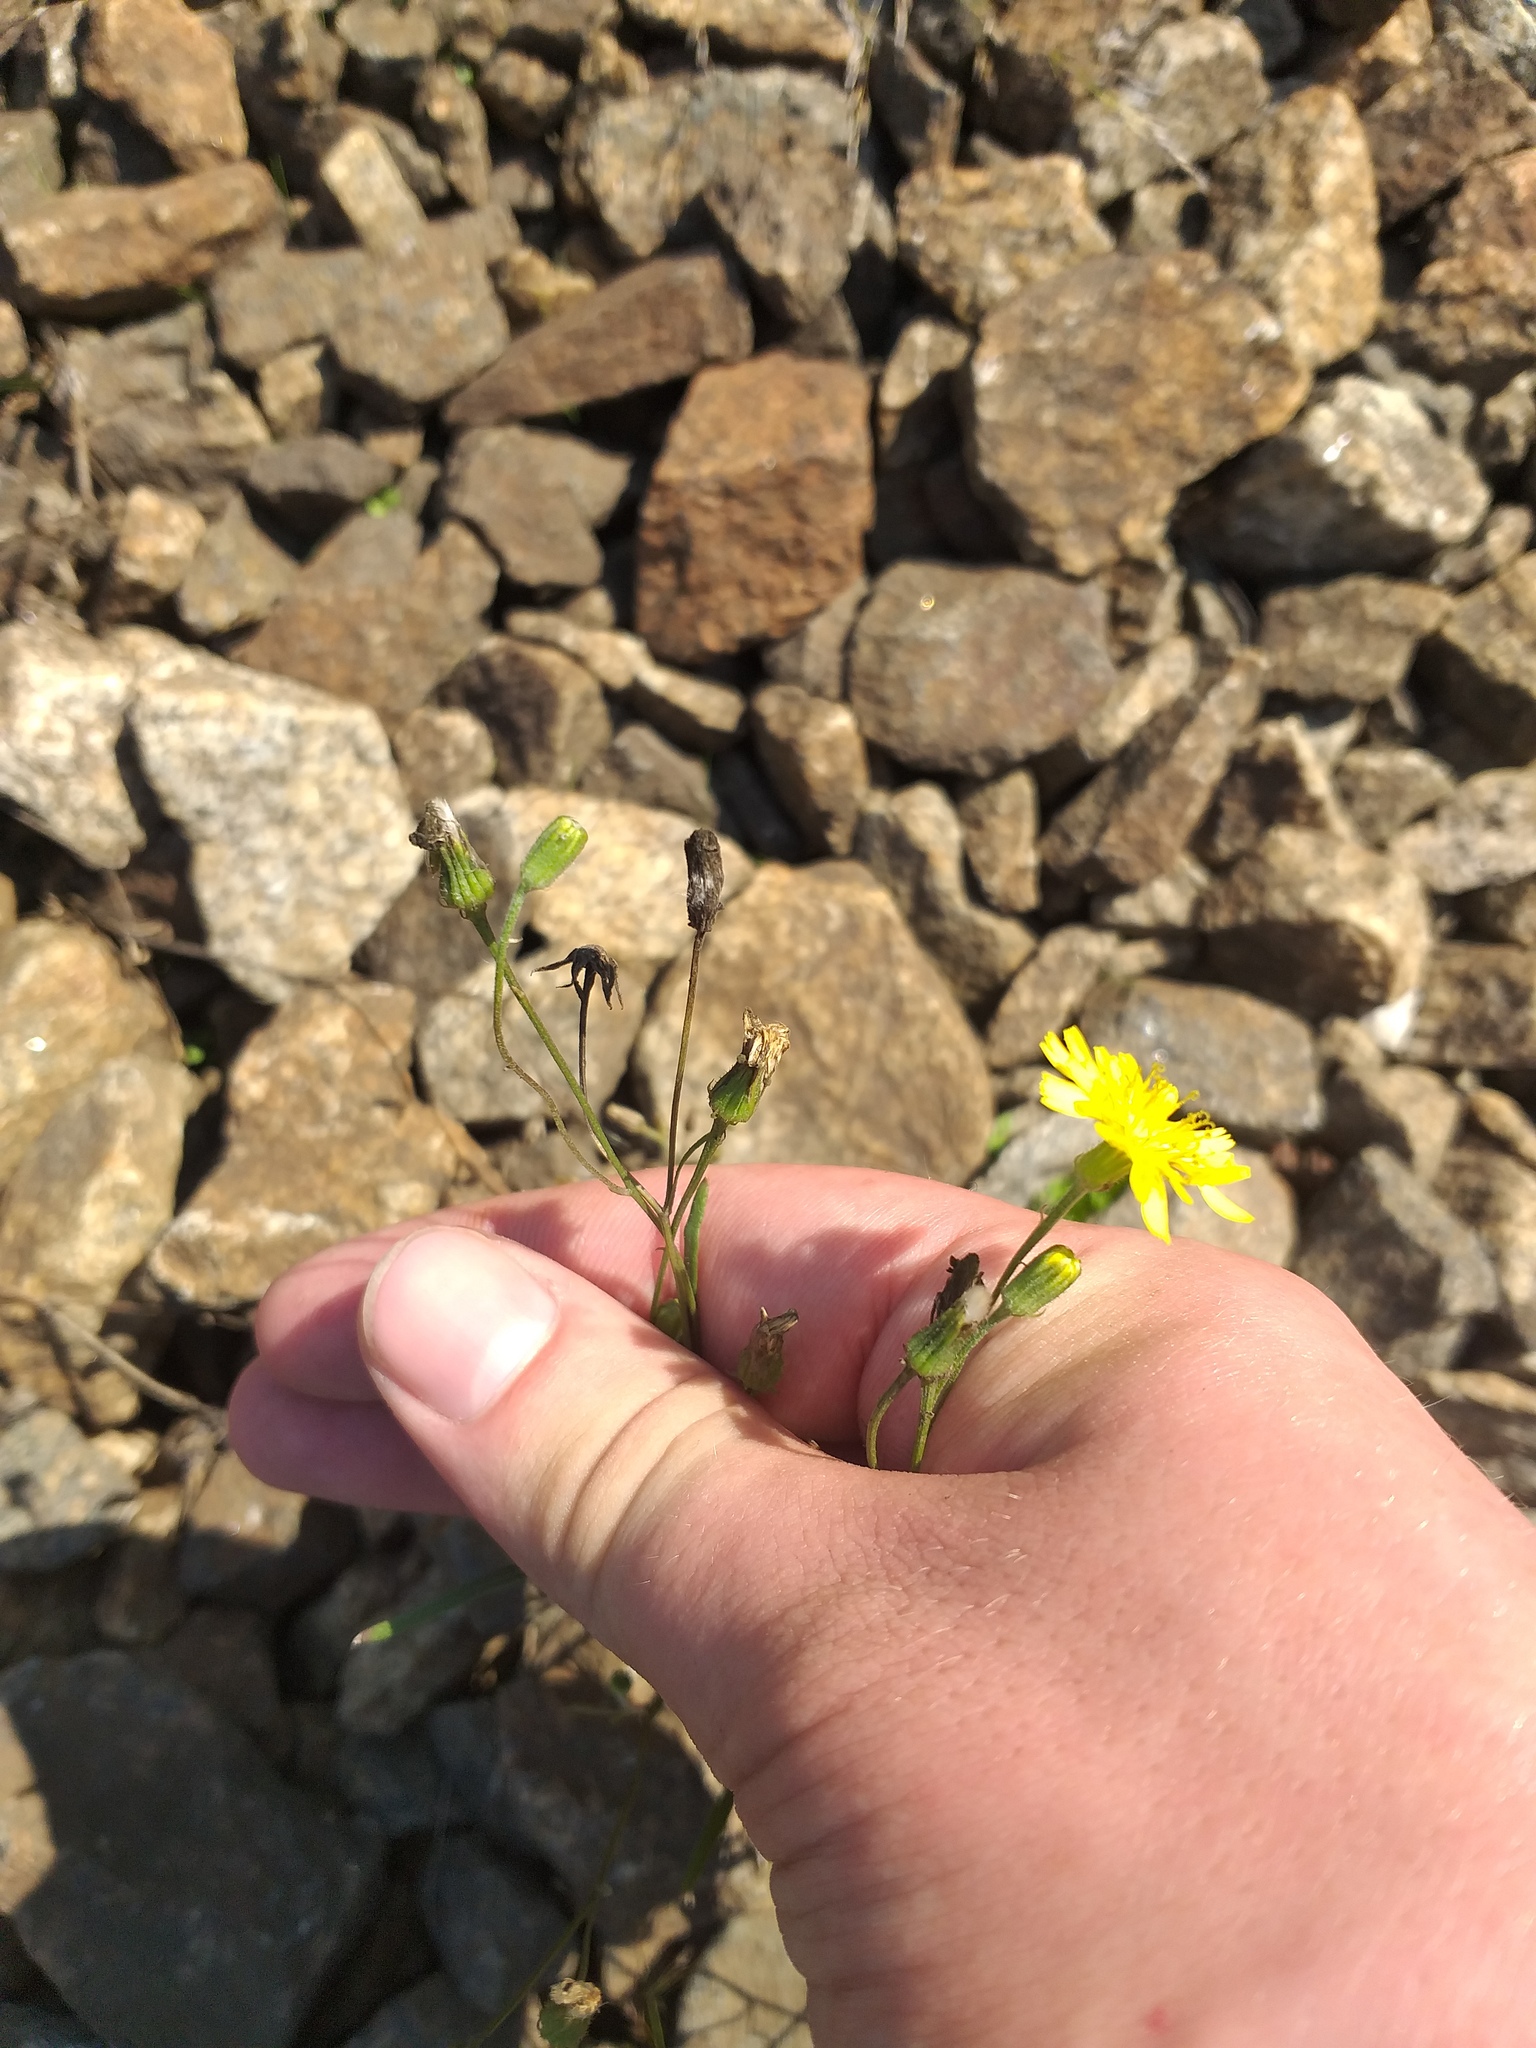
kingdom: Plantae
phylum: Tracheophyta
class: Magnoliopsida
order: Asterales
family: Asteraceae
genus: Crepis
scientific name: Crepis tectorum
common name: Narrow-leaved hawk's-beard
